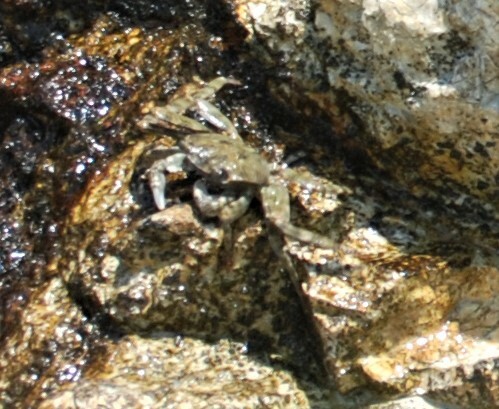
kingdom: Animalia
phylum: Arthropoda
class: Malacostraca
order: Decapoda
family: Grapsidae
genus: Leptograpsus
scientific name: Leptograpsus variegatus
